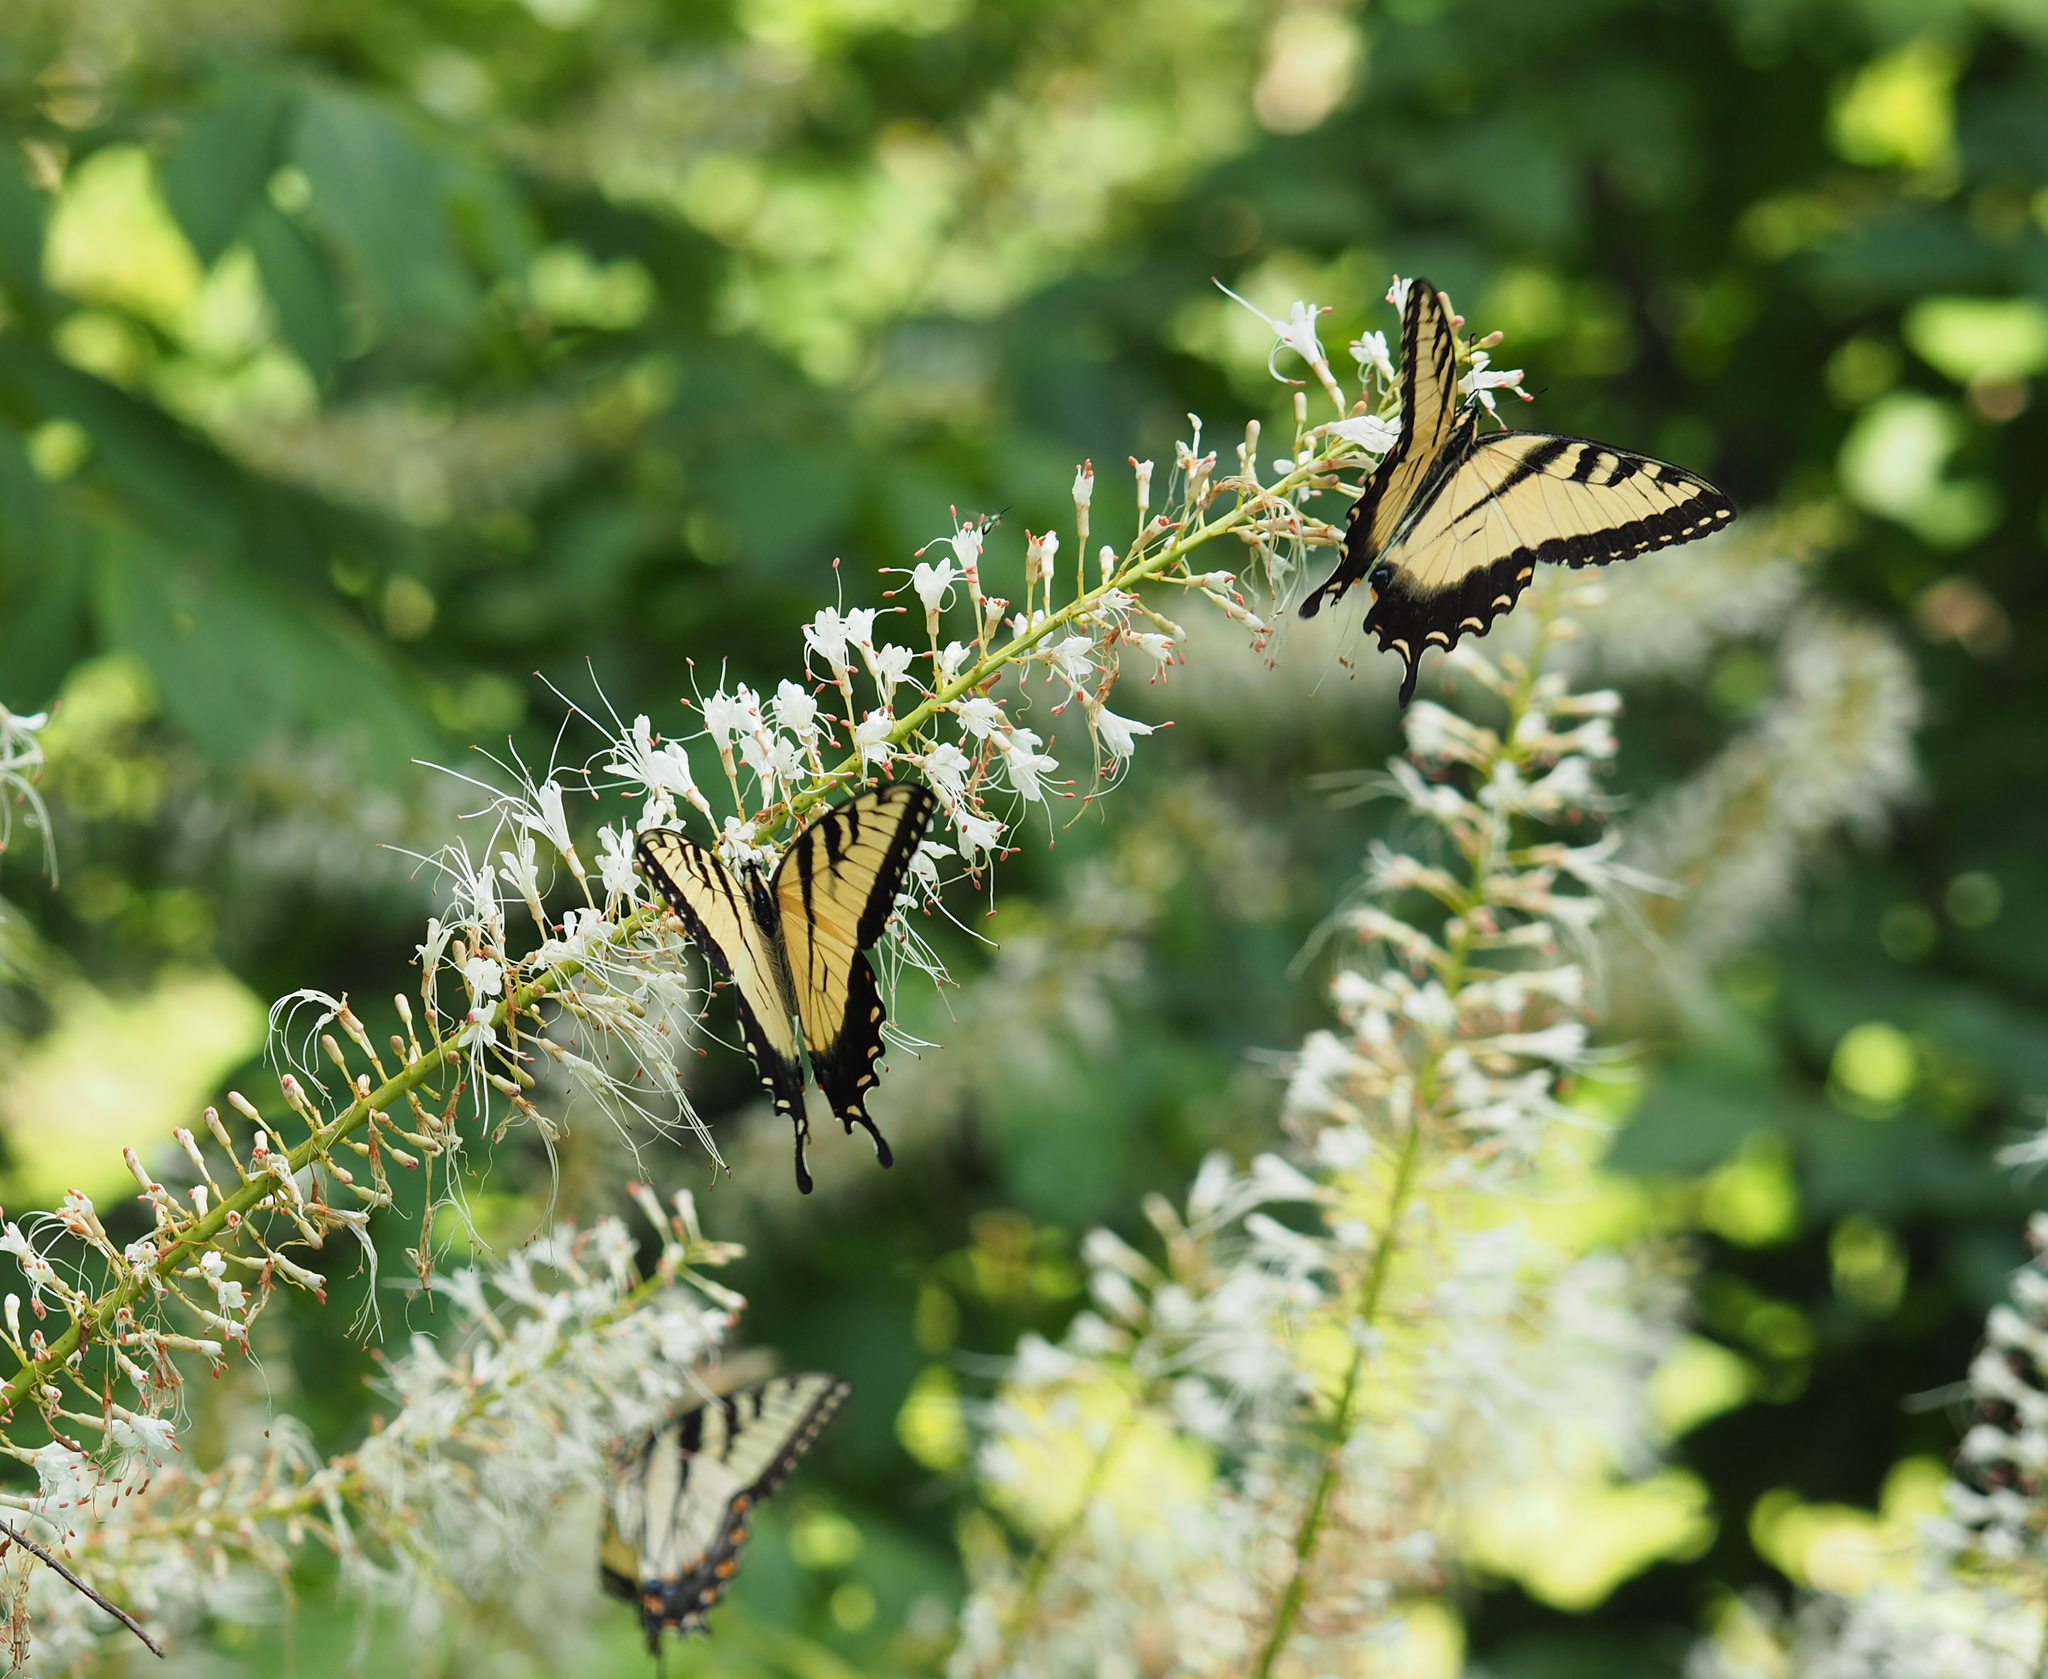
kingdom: Animalia
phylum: Arthropoda
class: Insecta
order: Lepidoptera
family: Papilionidae
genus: Papilio
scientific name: Papilio glaucus
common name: Tiger swallowtail
